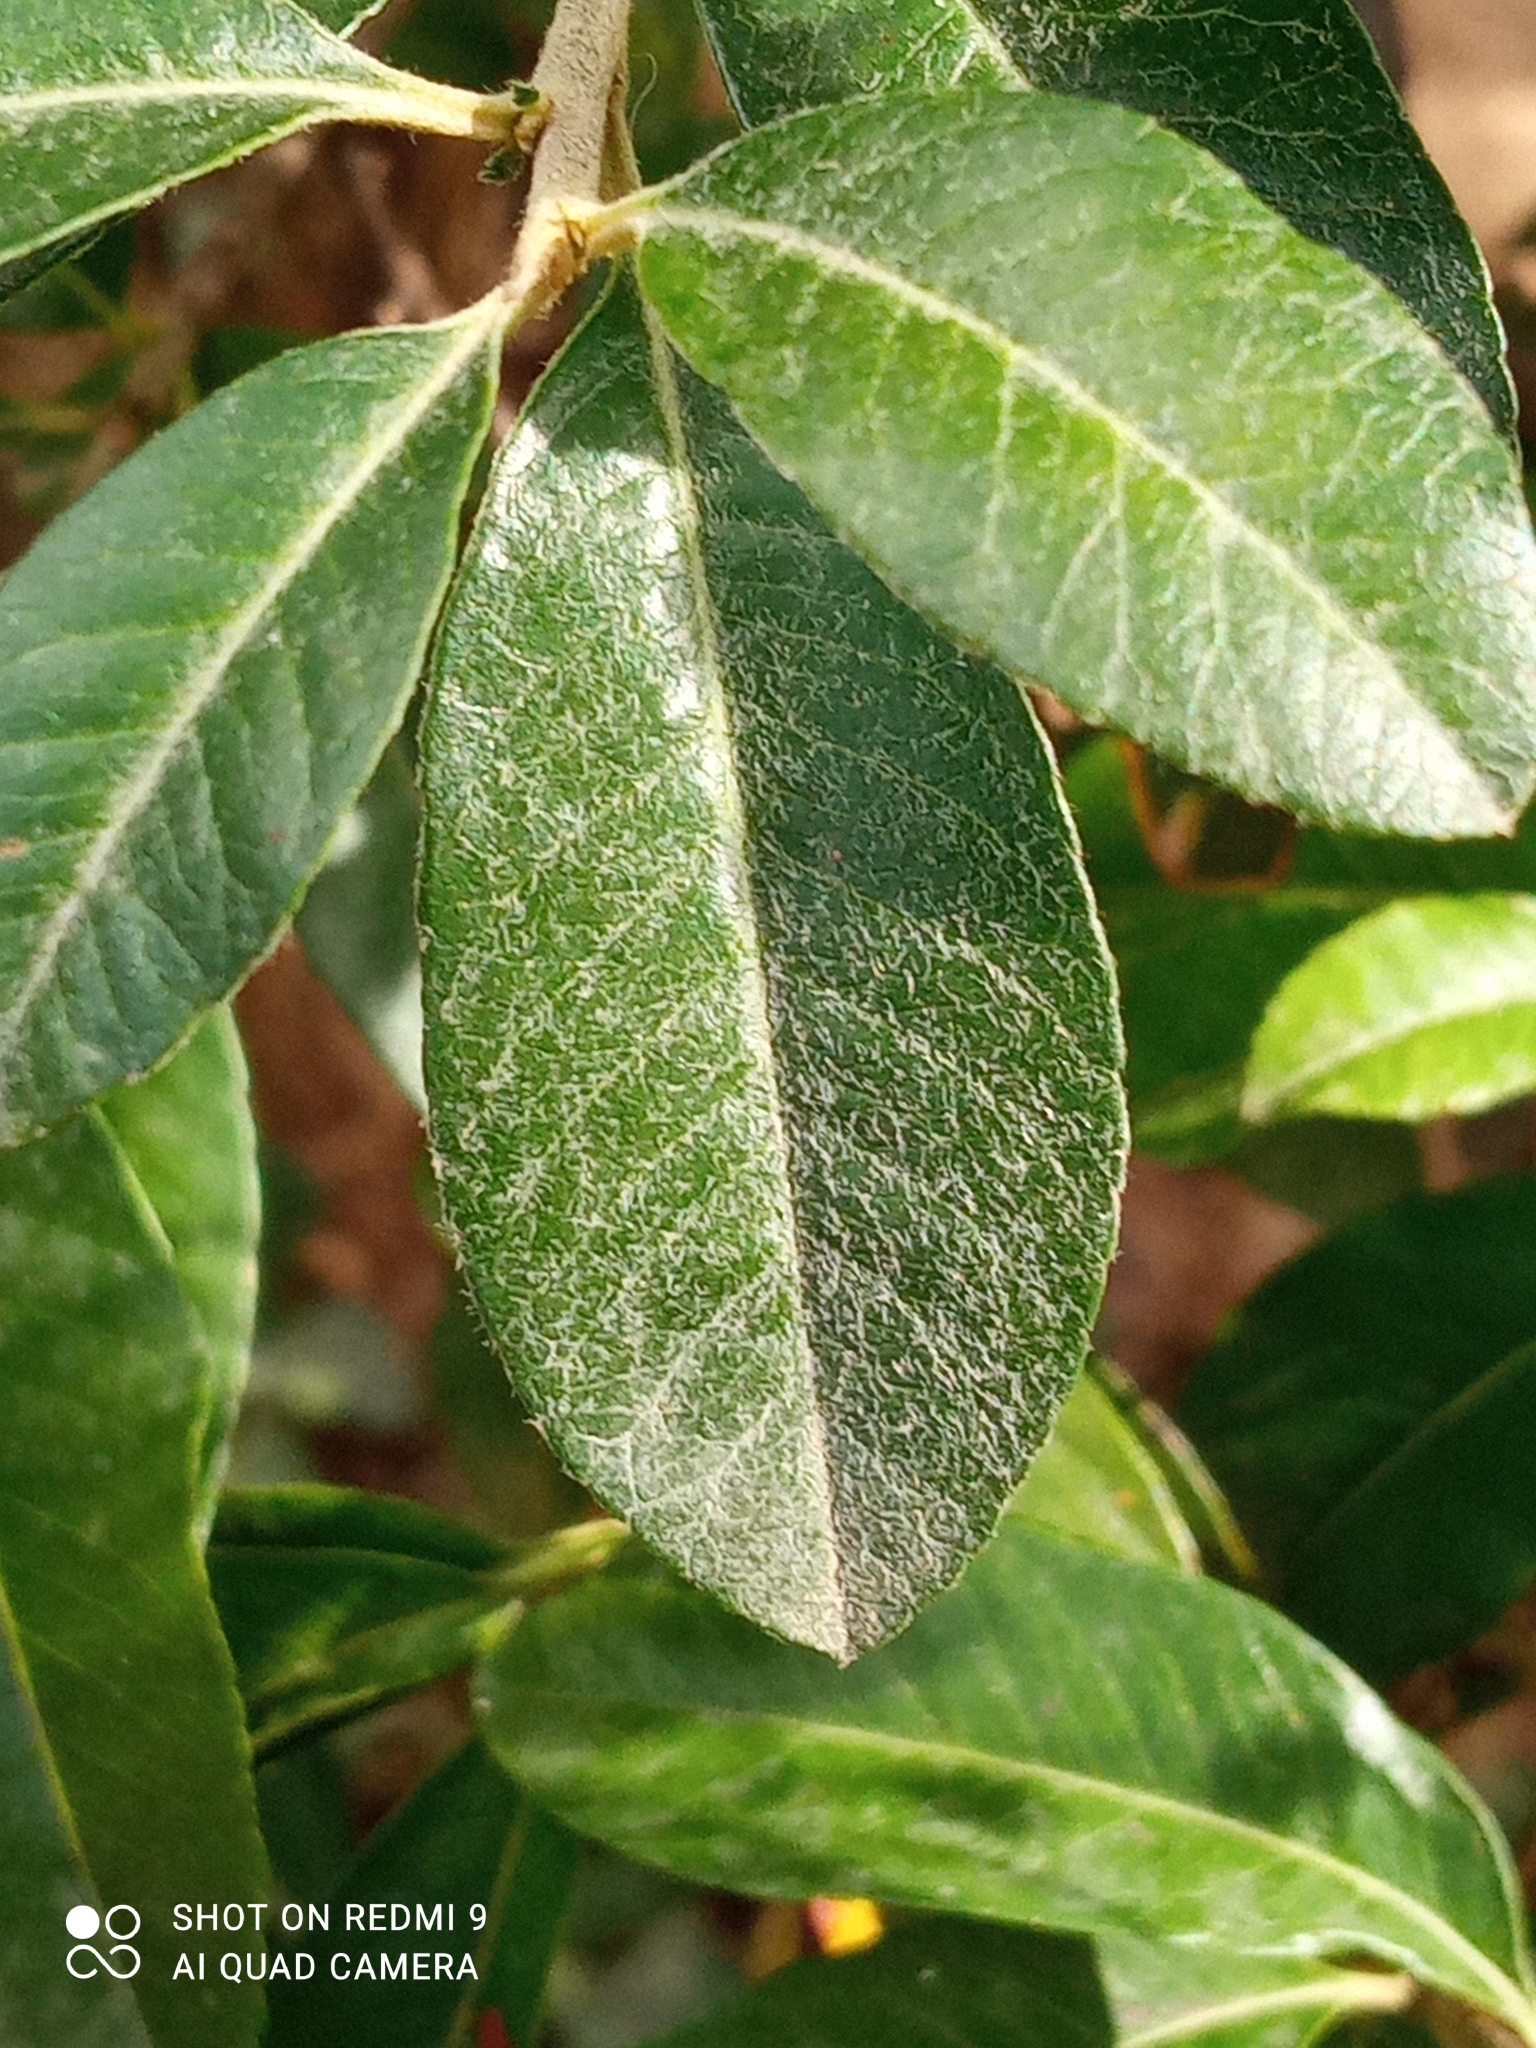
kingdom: Plantae
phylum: Tracheophyta
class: Magnoliopsida
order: Rosales
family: Rosaceae
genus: Pyracantha
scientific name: Pyracantha coccinea
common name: Firethorn
